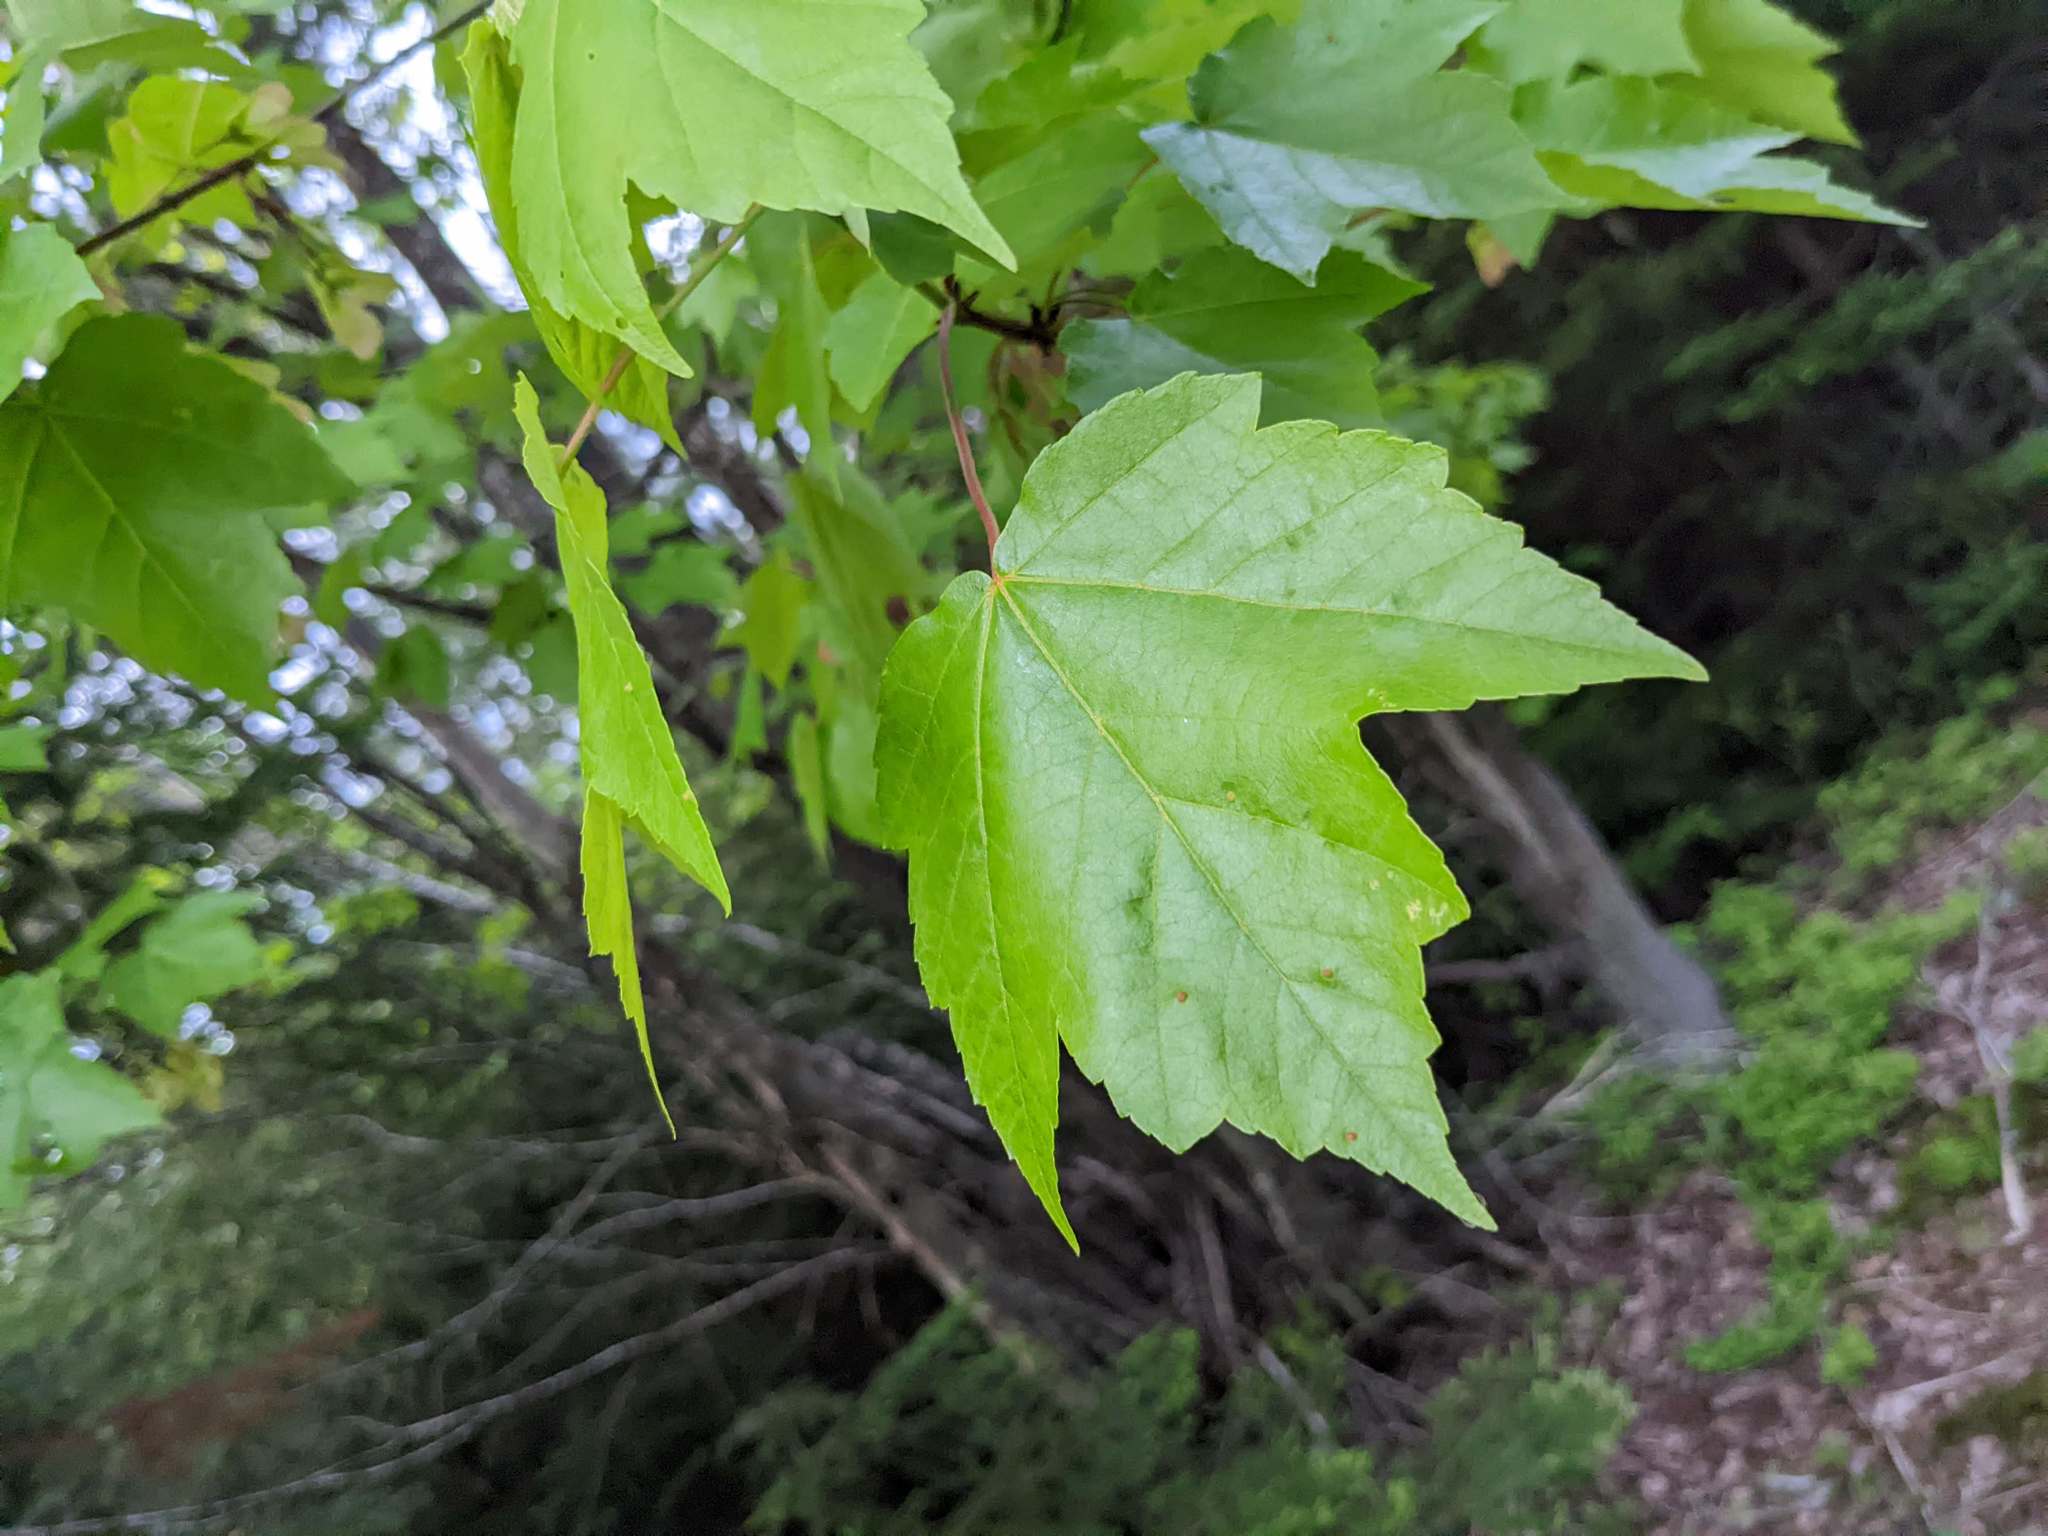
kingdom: Plantae
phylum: Tracheophyta
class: Magnoliopsida
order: Sapindales
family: Sapindaceae
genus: Acer
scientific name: Acer rubrum
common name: Red maple
